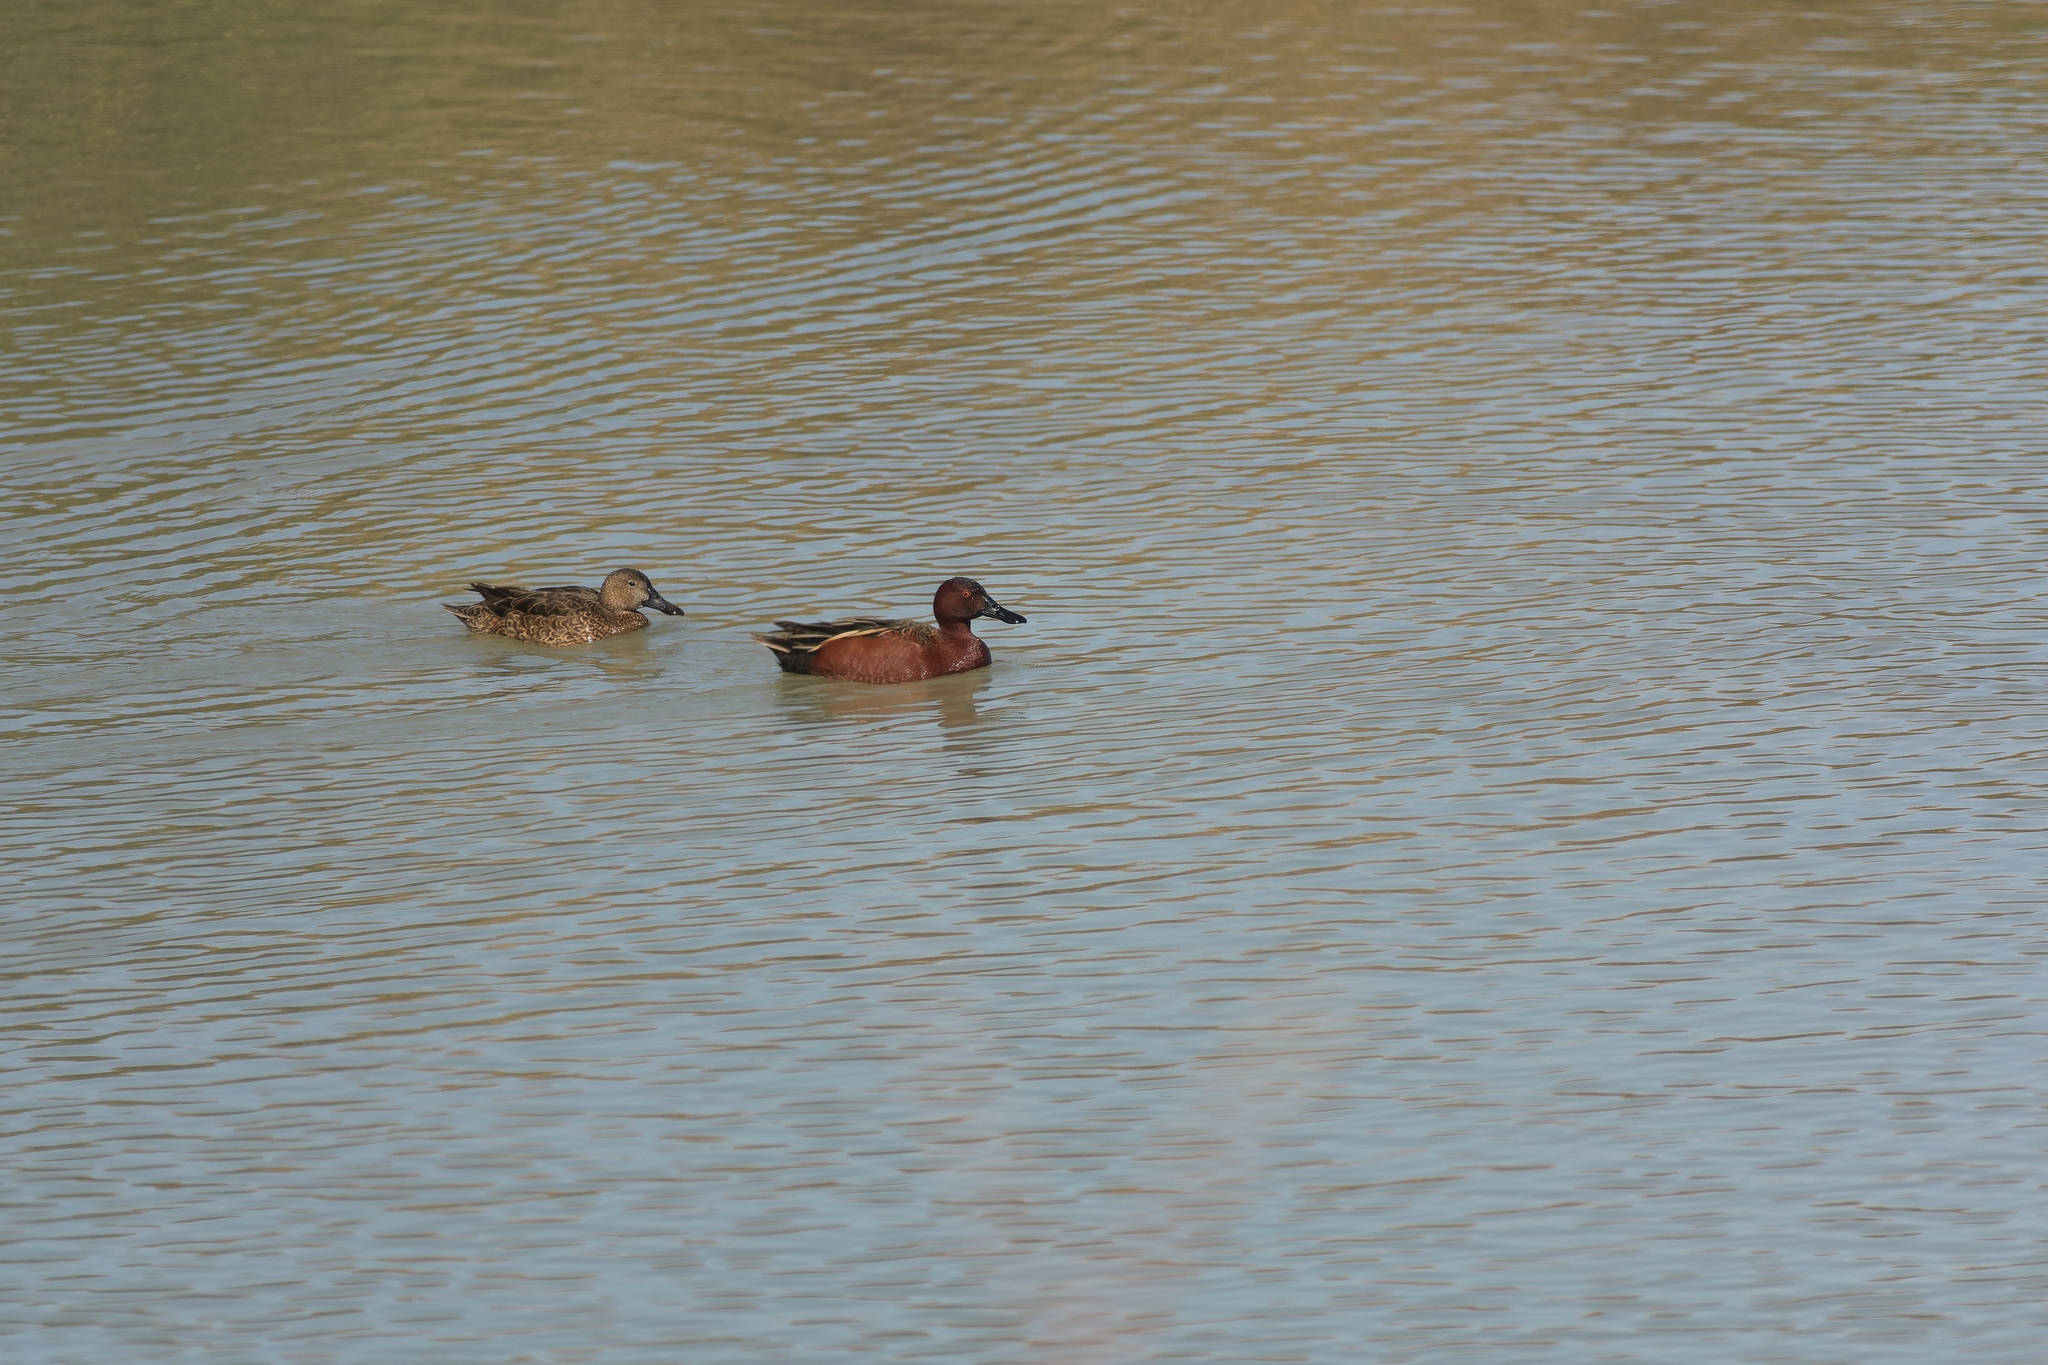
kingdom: Animalia
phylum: Chordata
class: Aves
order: Anseriformes
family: Anatidae
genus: Spatula
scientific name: Spatula cyanoptera
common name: Cinnamon teal
